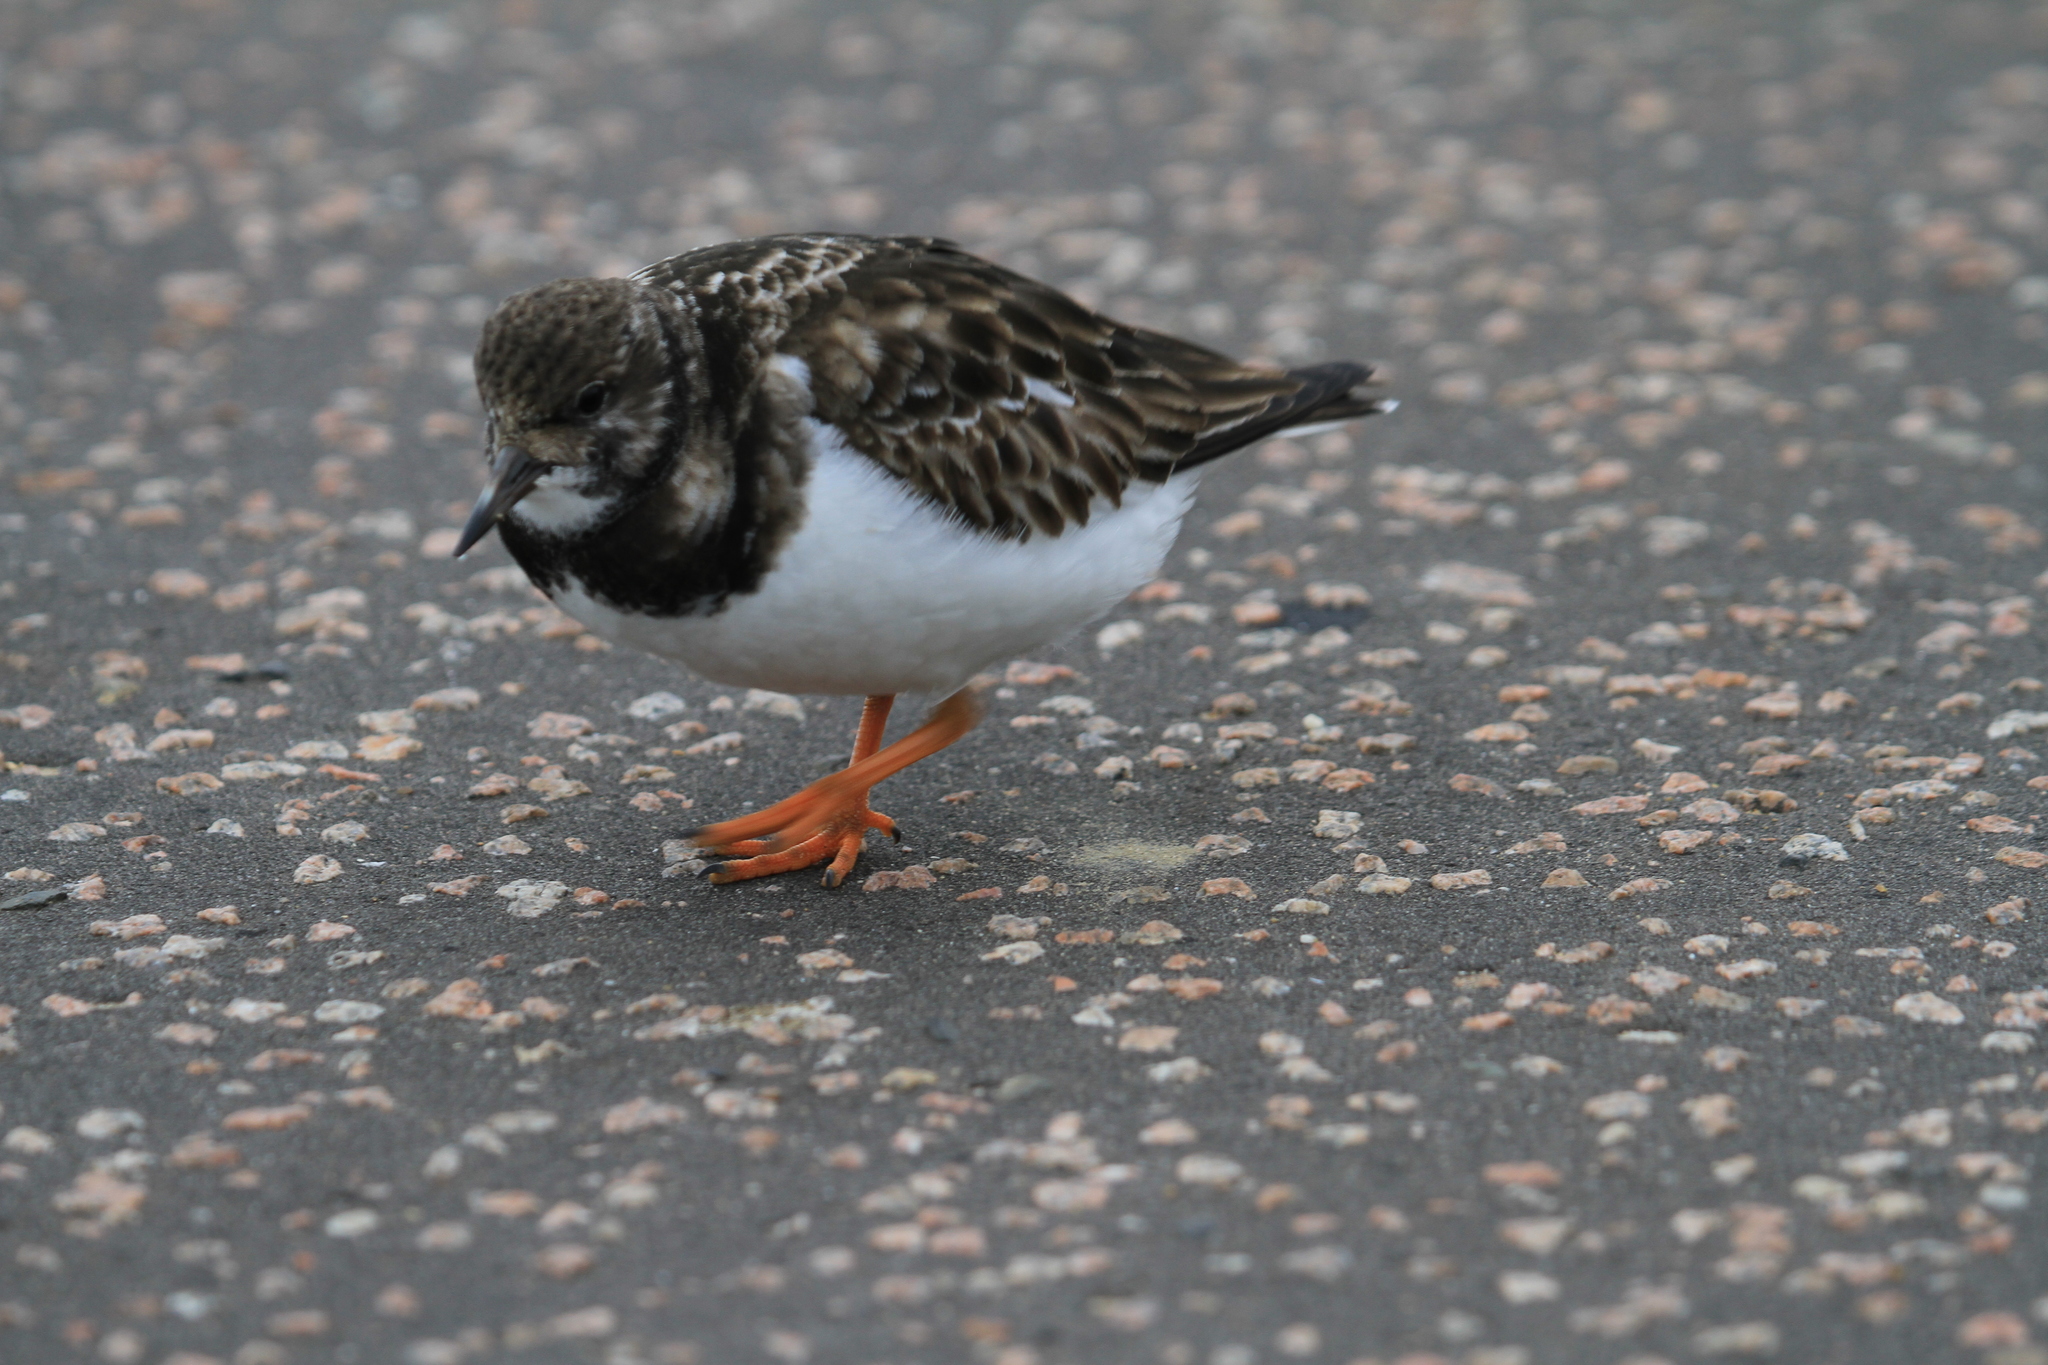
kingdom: Animalia
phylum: Chordata
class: Aves
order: Charadriiformes
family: Scolopacidae
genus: Arenaria
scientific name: Arenaria interpres
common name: Ruddy turnstone
